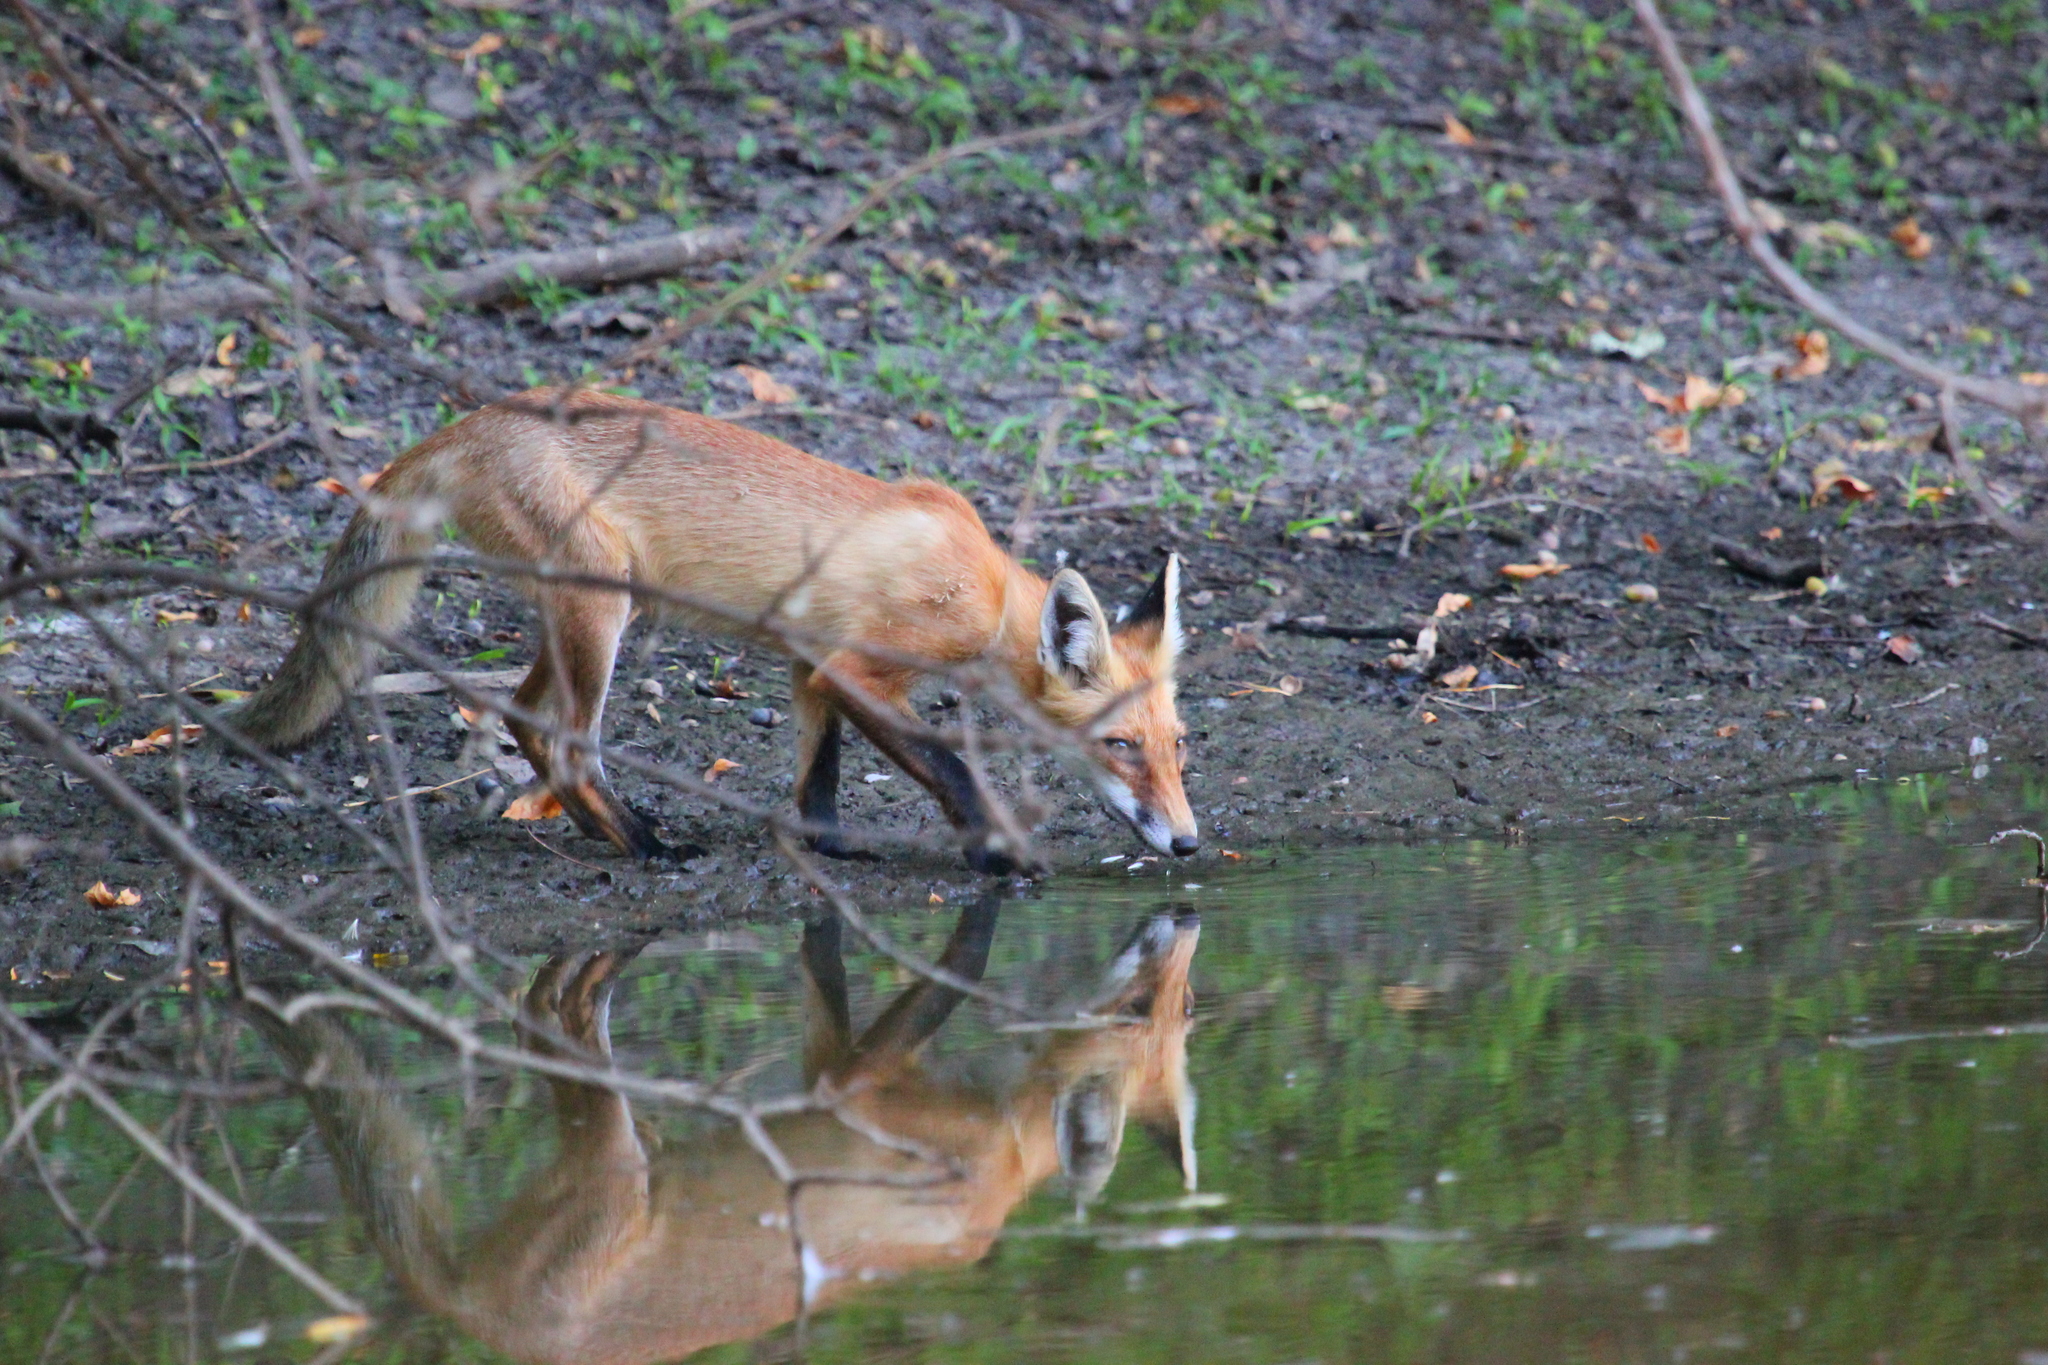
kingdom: Animalia
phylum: Chordata
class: Mammalia
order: Carnivora
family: Canidae
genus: Vulpes
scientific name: Vulpes vulpes
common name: Red fox
